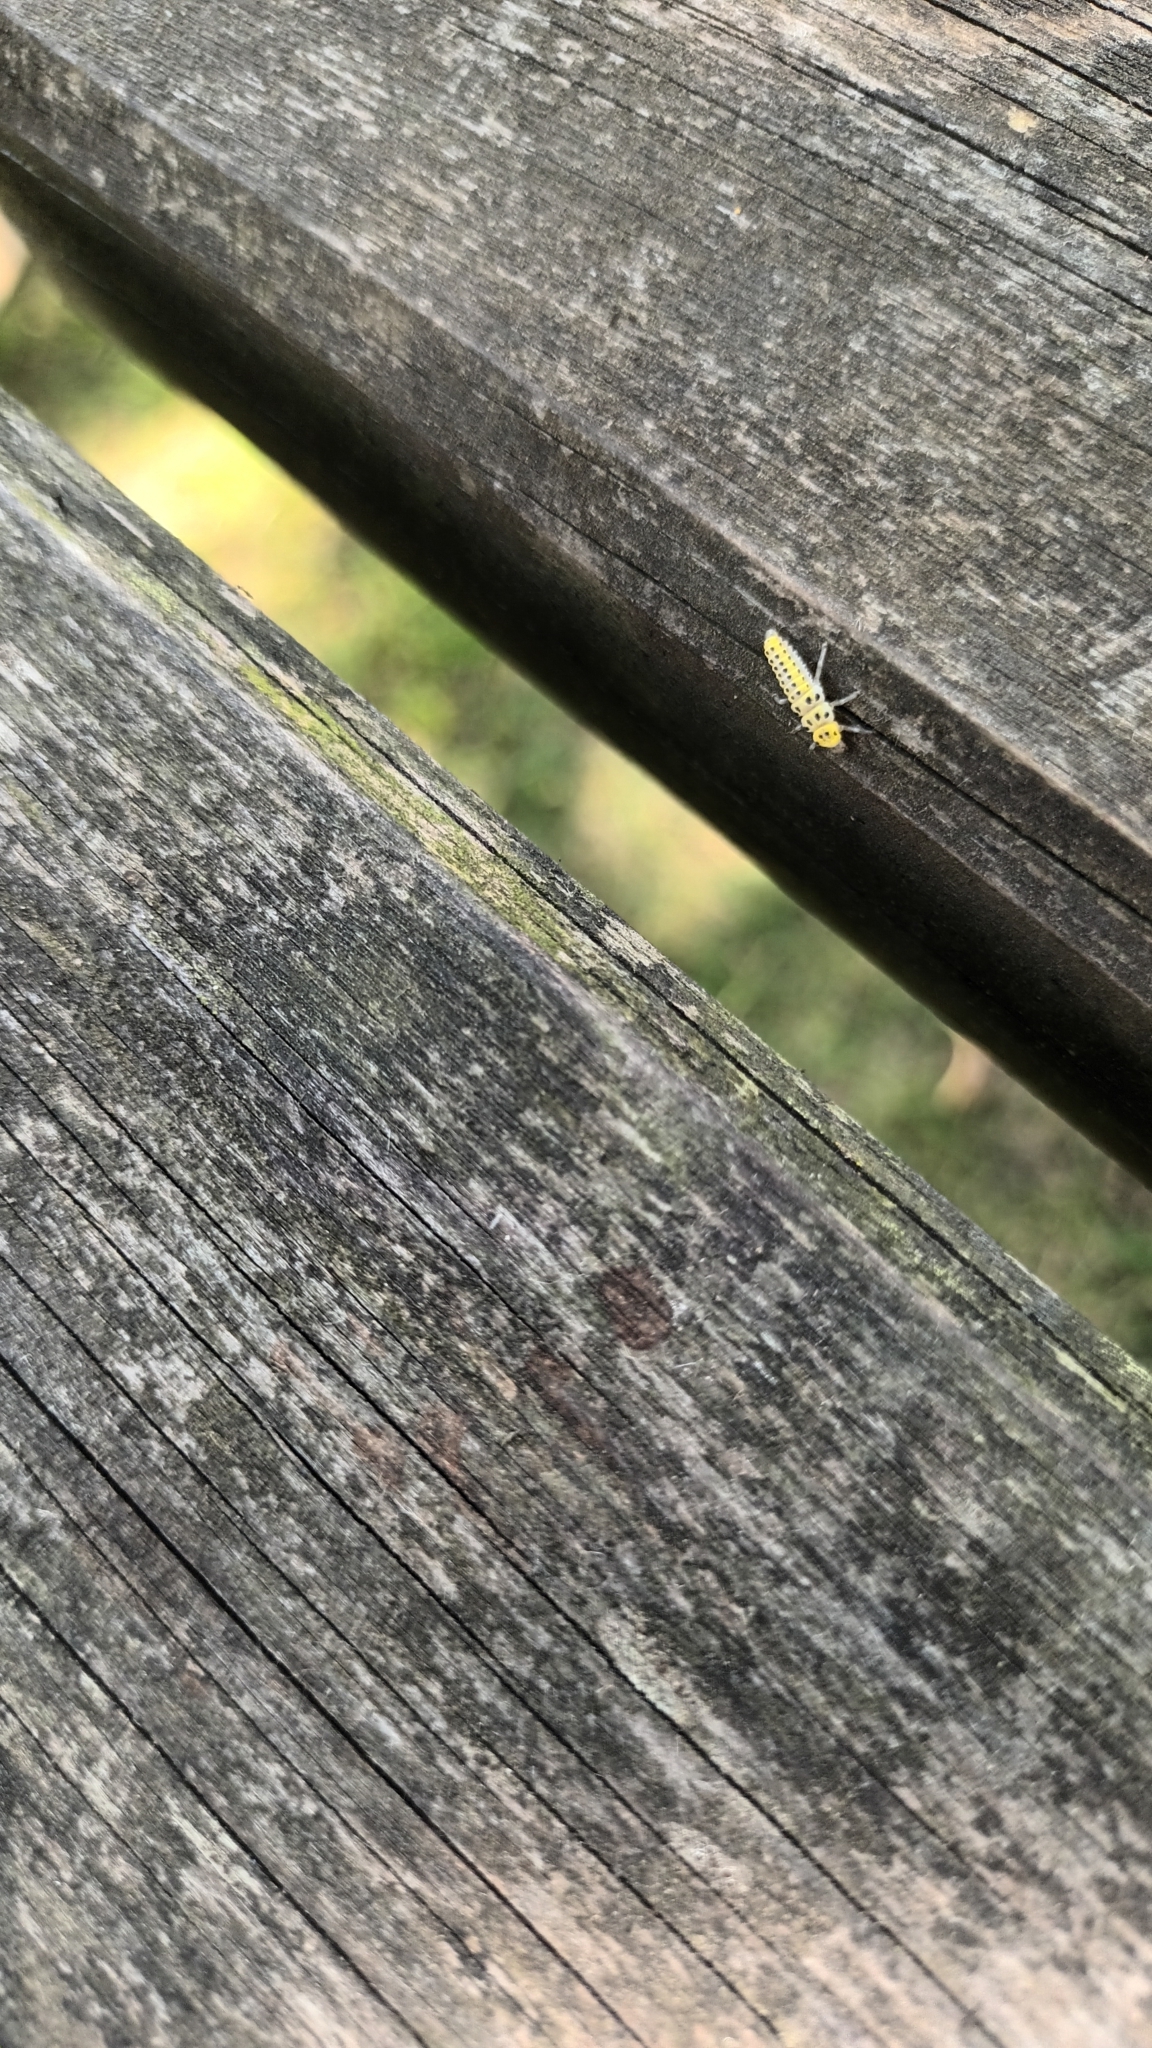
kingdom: Animalia
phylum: Arthropoda
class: Insecta
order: Coleoptera
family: Coccinellidae
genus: Halyzia
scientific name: Halyzia sedecimguttata
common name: Orange ladybird
